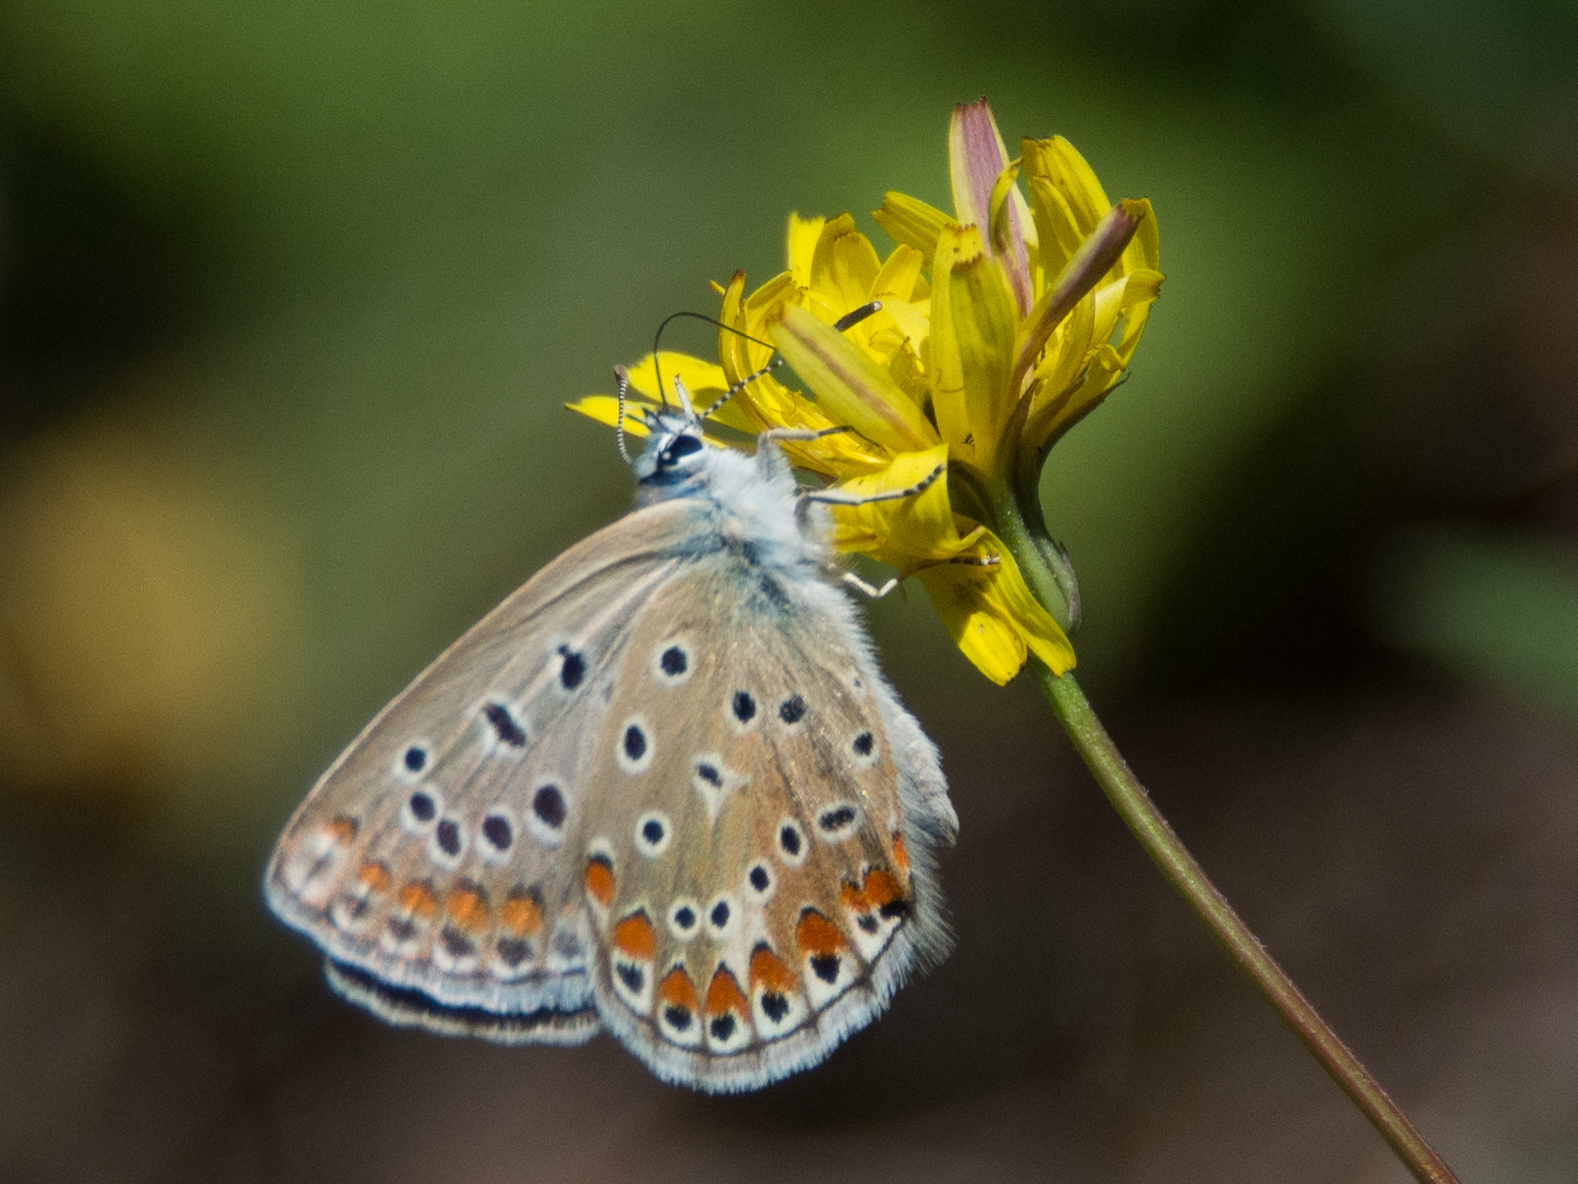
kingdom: Animalia
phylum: Arthropoda
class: Insecta
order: Lepidoptera
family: Lycaenidae
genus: Polyommatus
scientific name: Polyommatus celina
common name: Austaut's blue
